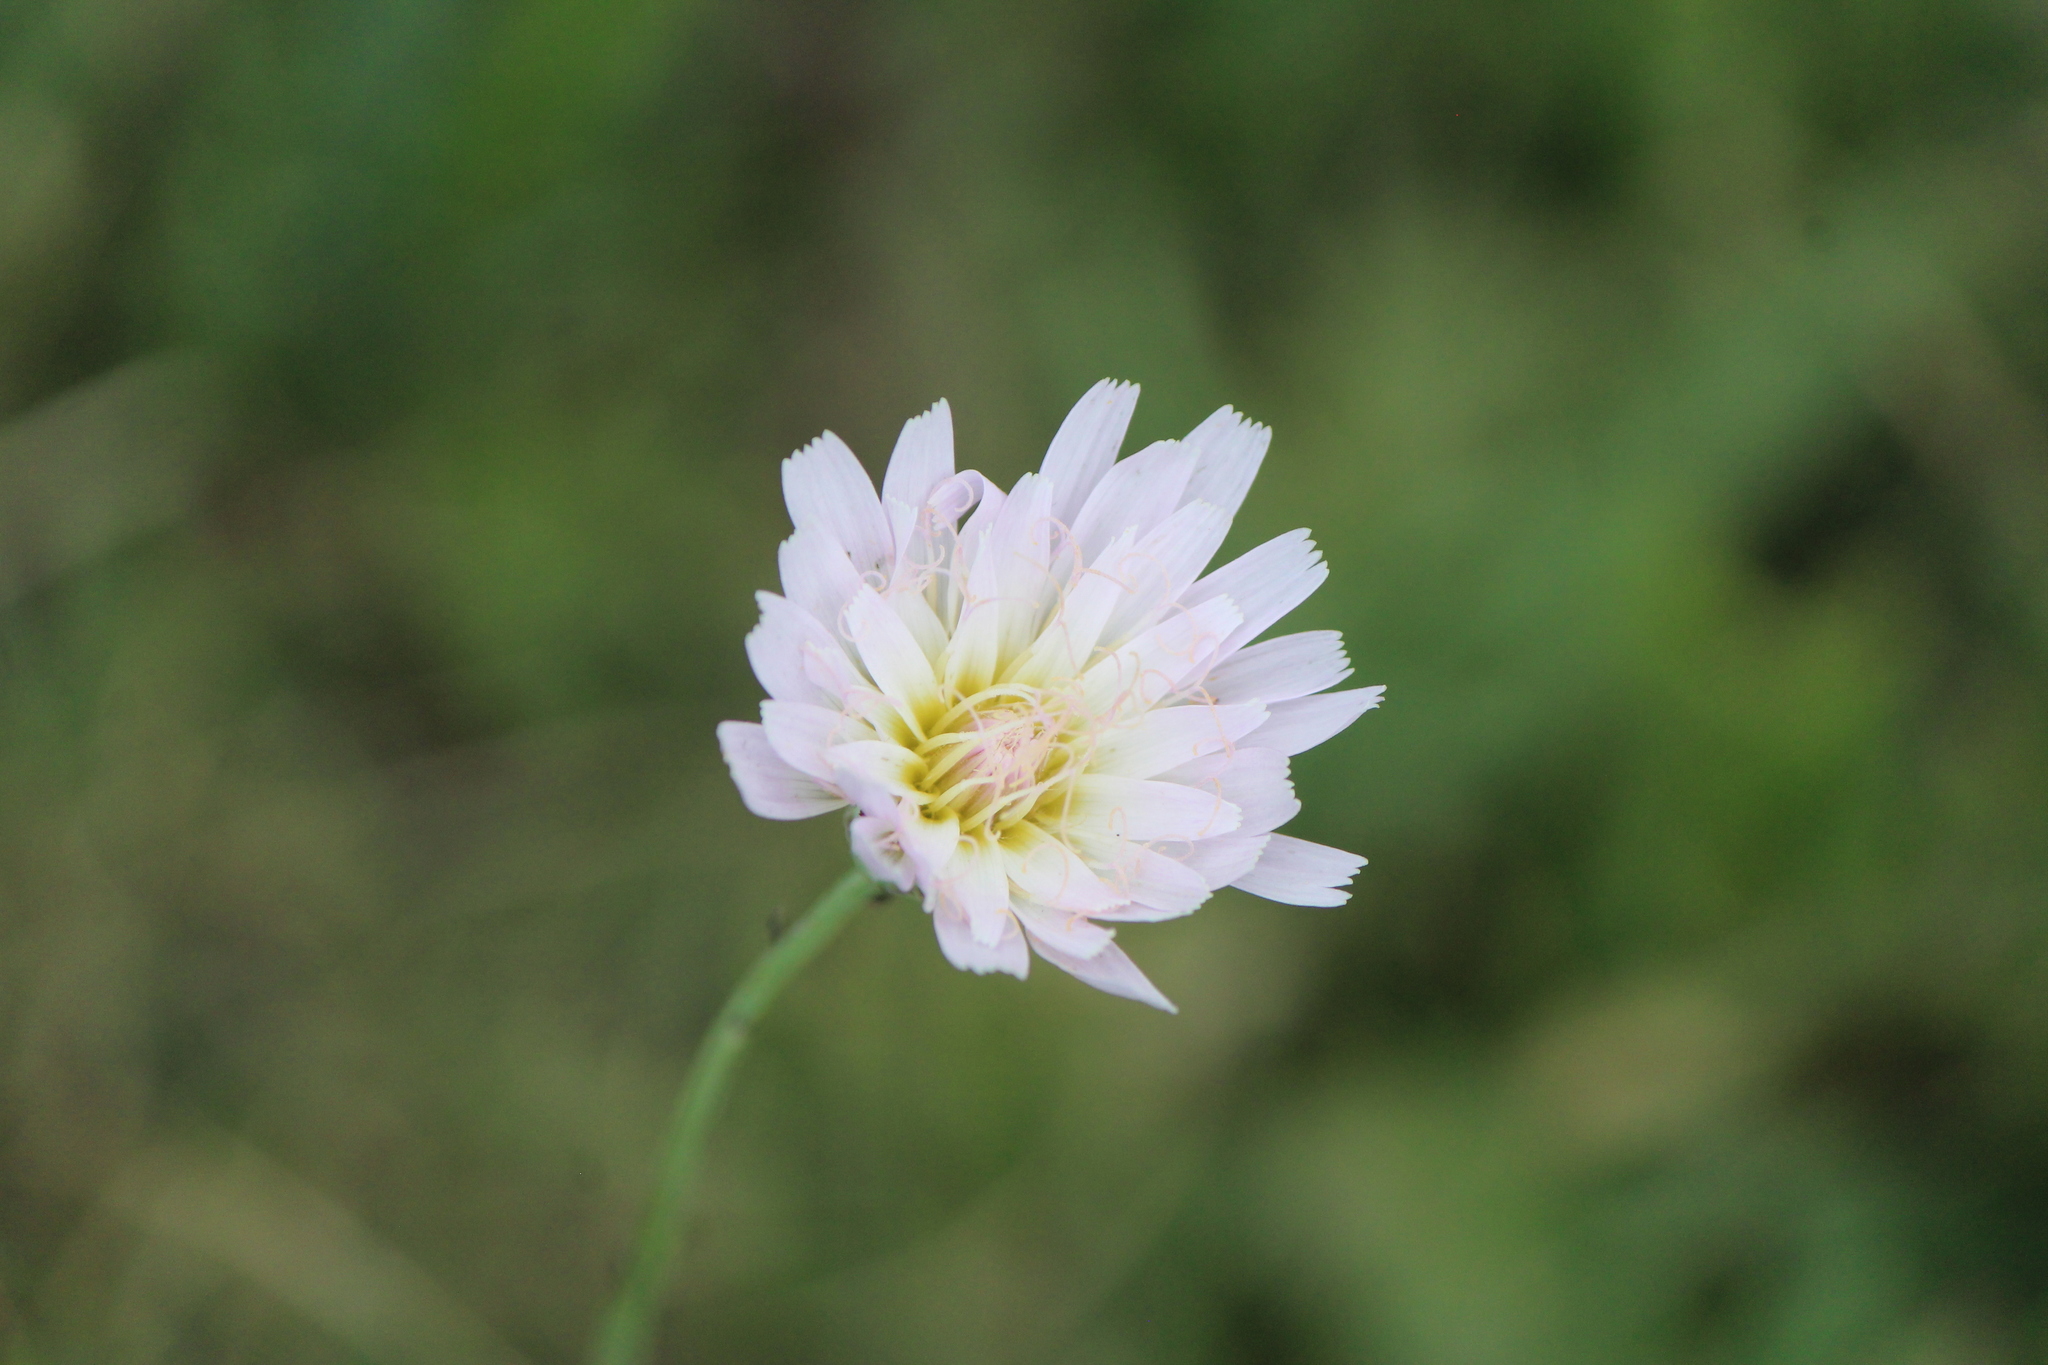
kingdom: Plantae
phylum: Tracheophyta
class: Magnoliopsida
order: Asterales
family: Asteraceae
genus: Pinaropappus
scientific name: Pinaropappus roseus
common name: Rock-lettuce
